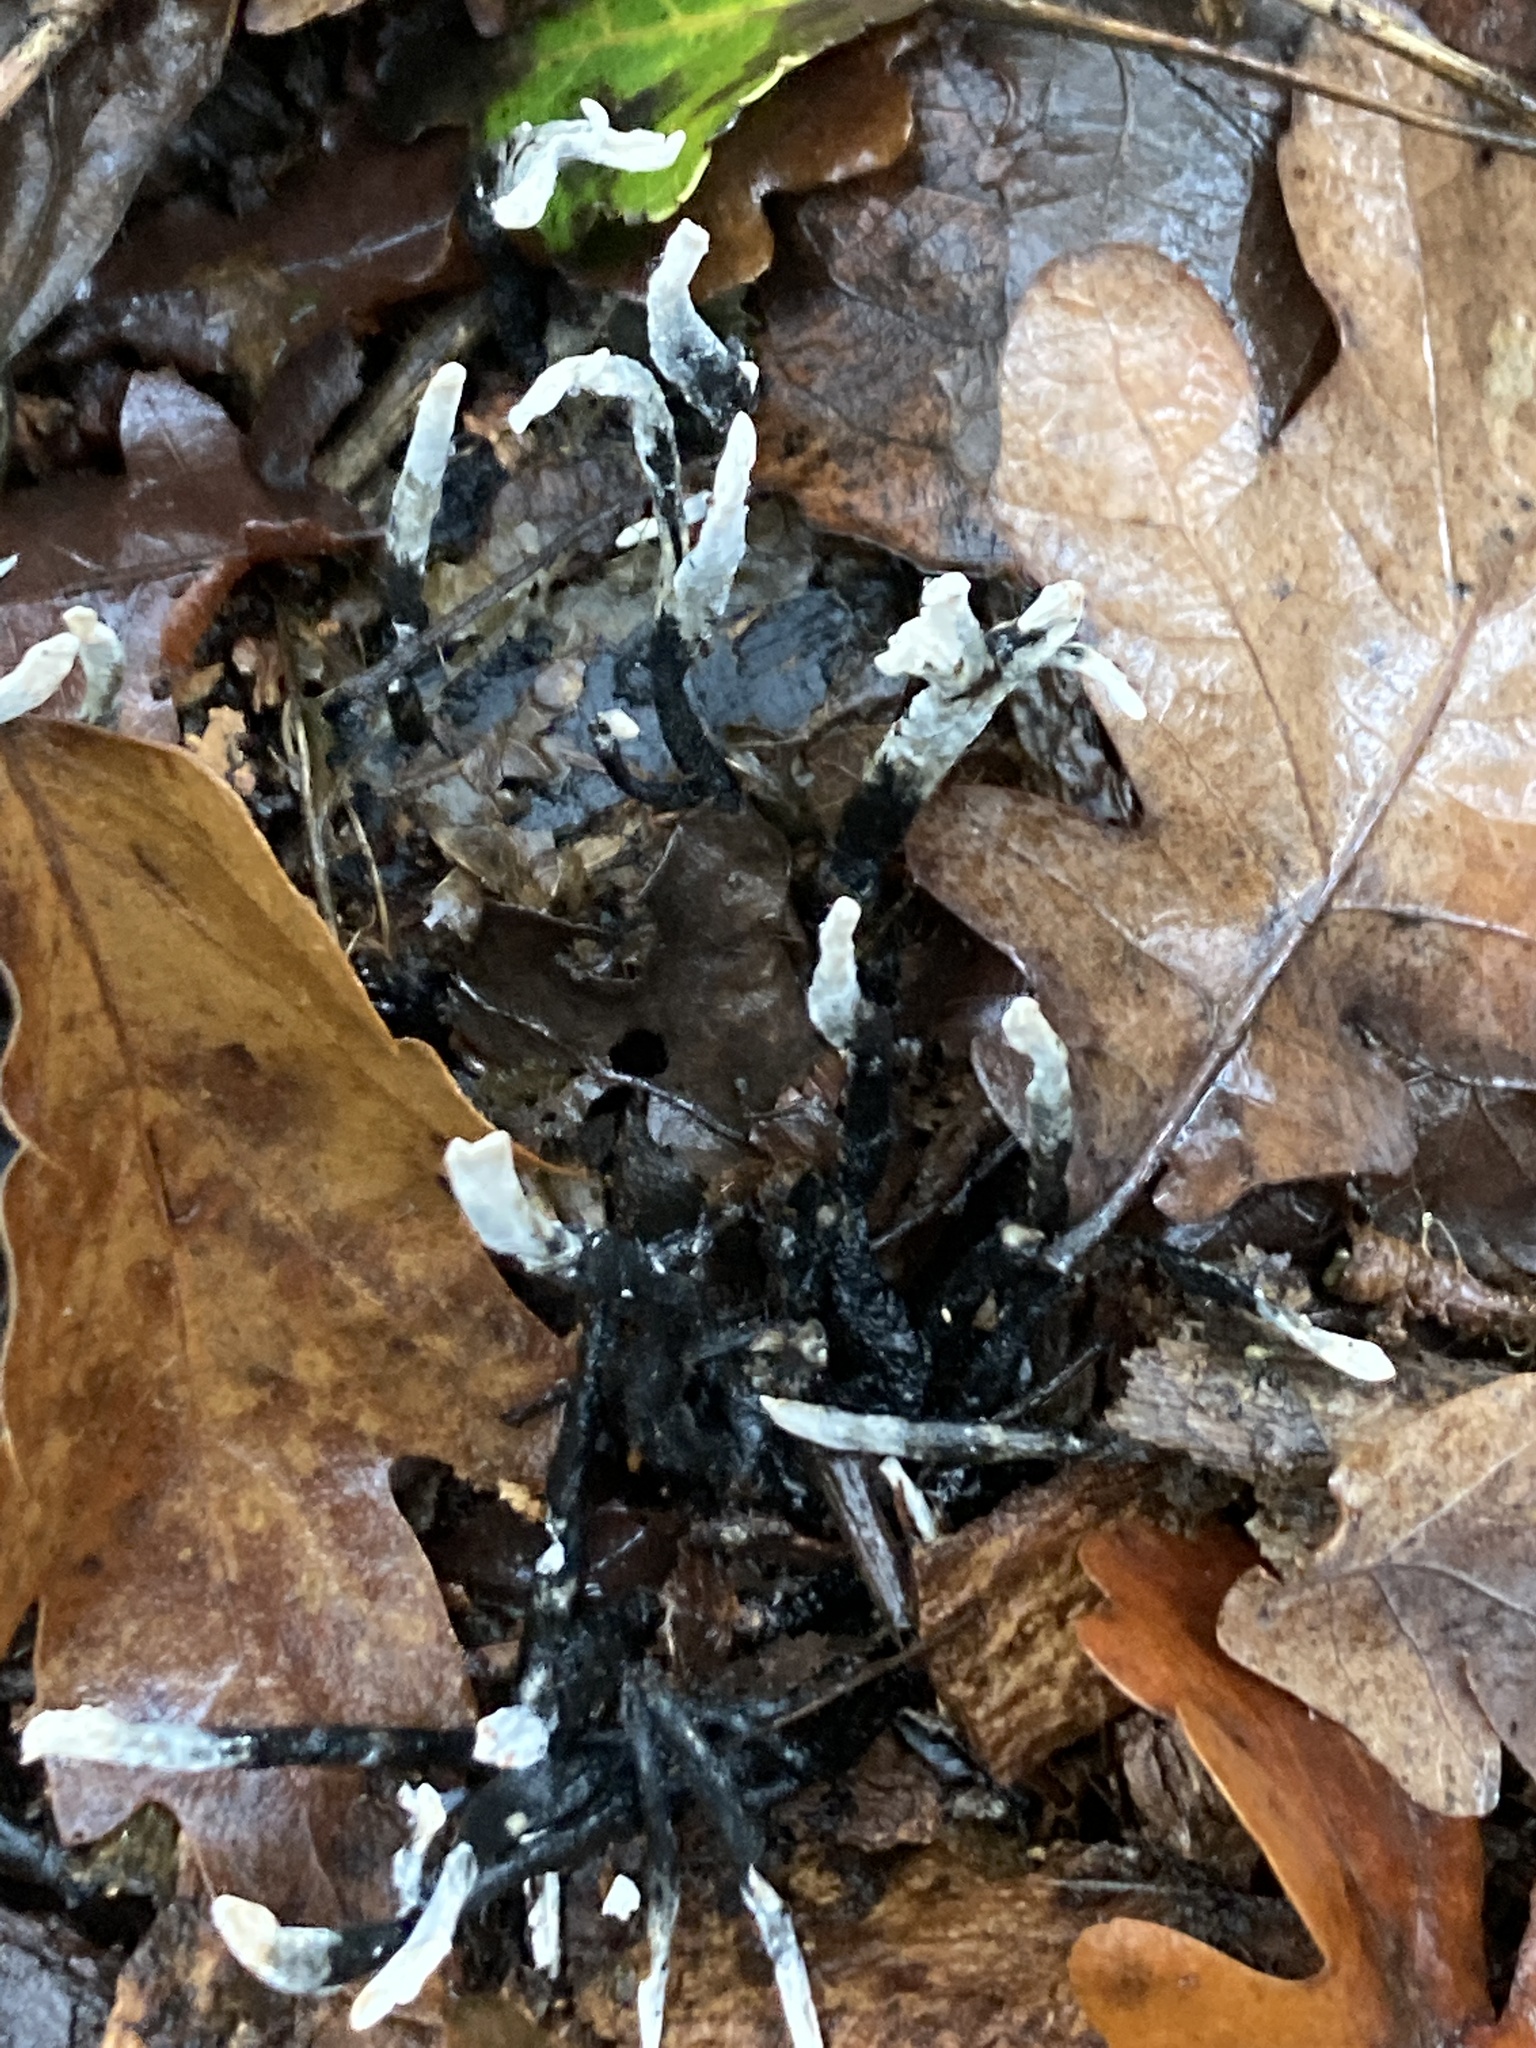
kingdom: Fungi
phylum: Ascomycota
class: Sordariomycetes
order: Xylariales
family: Xylariaceae
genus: Xylaria
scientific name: Xylaria hypoxylon
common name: Candle-snuff fungus
